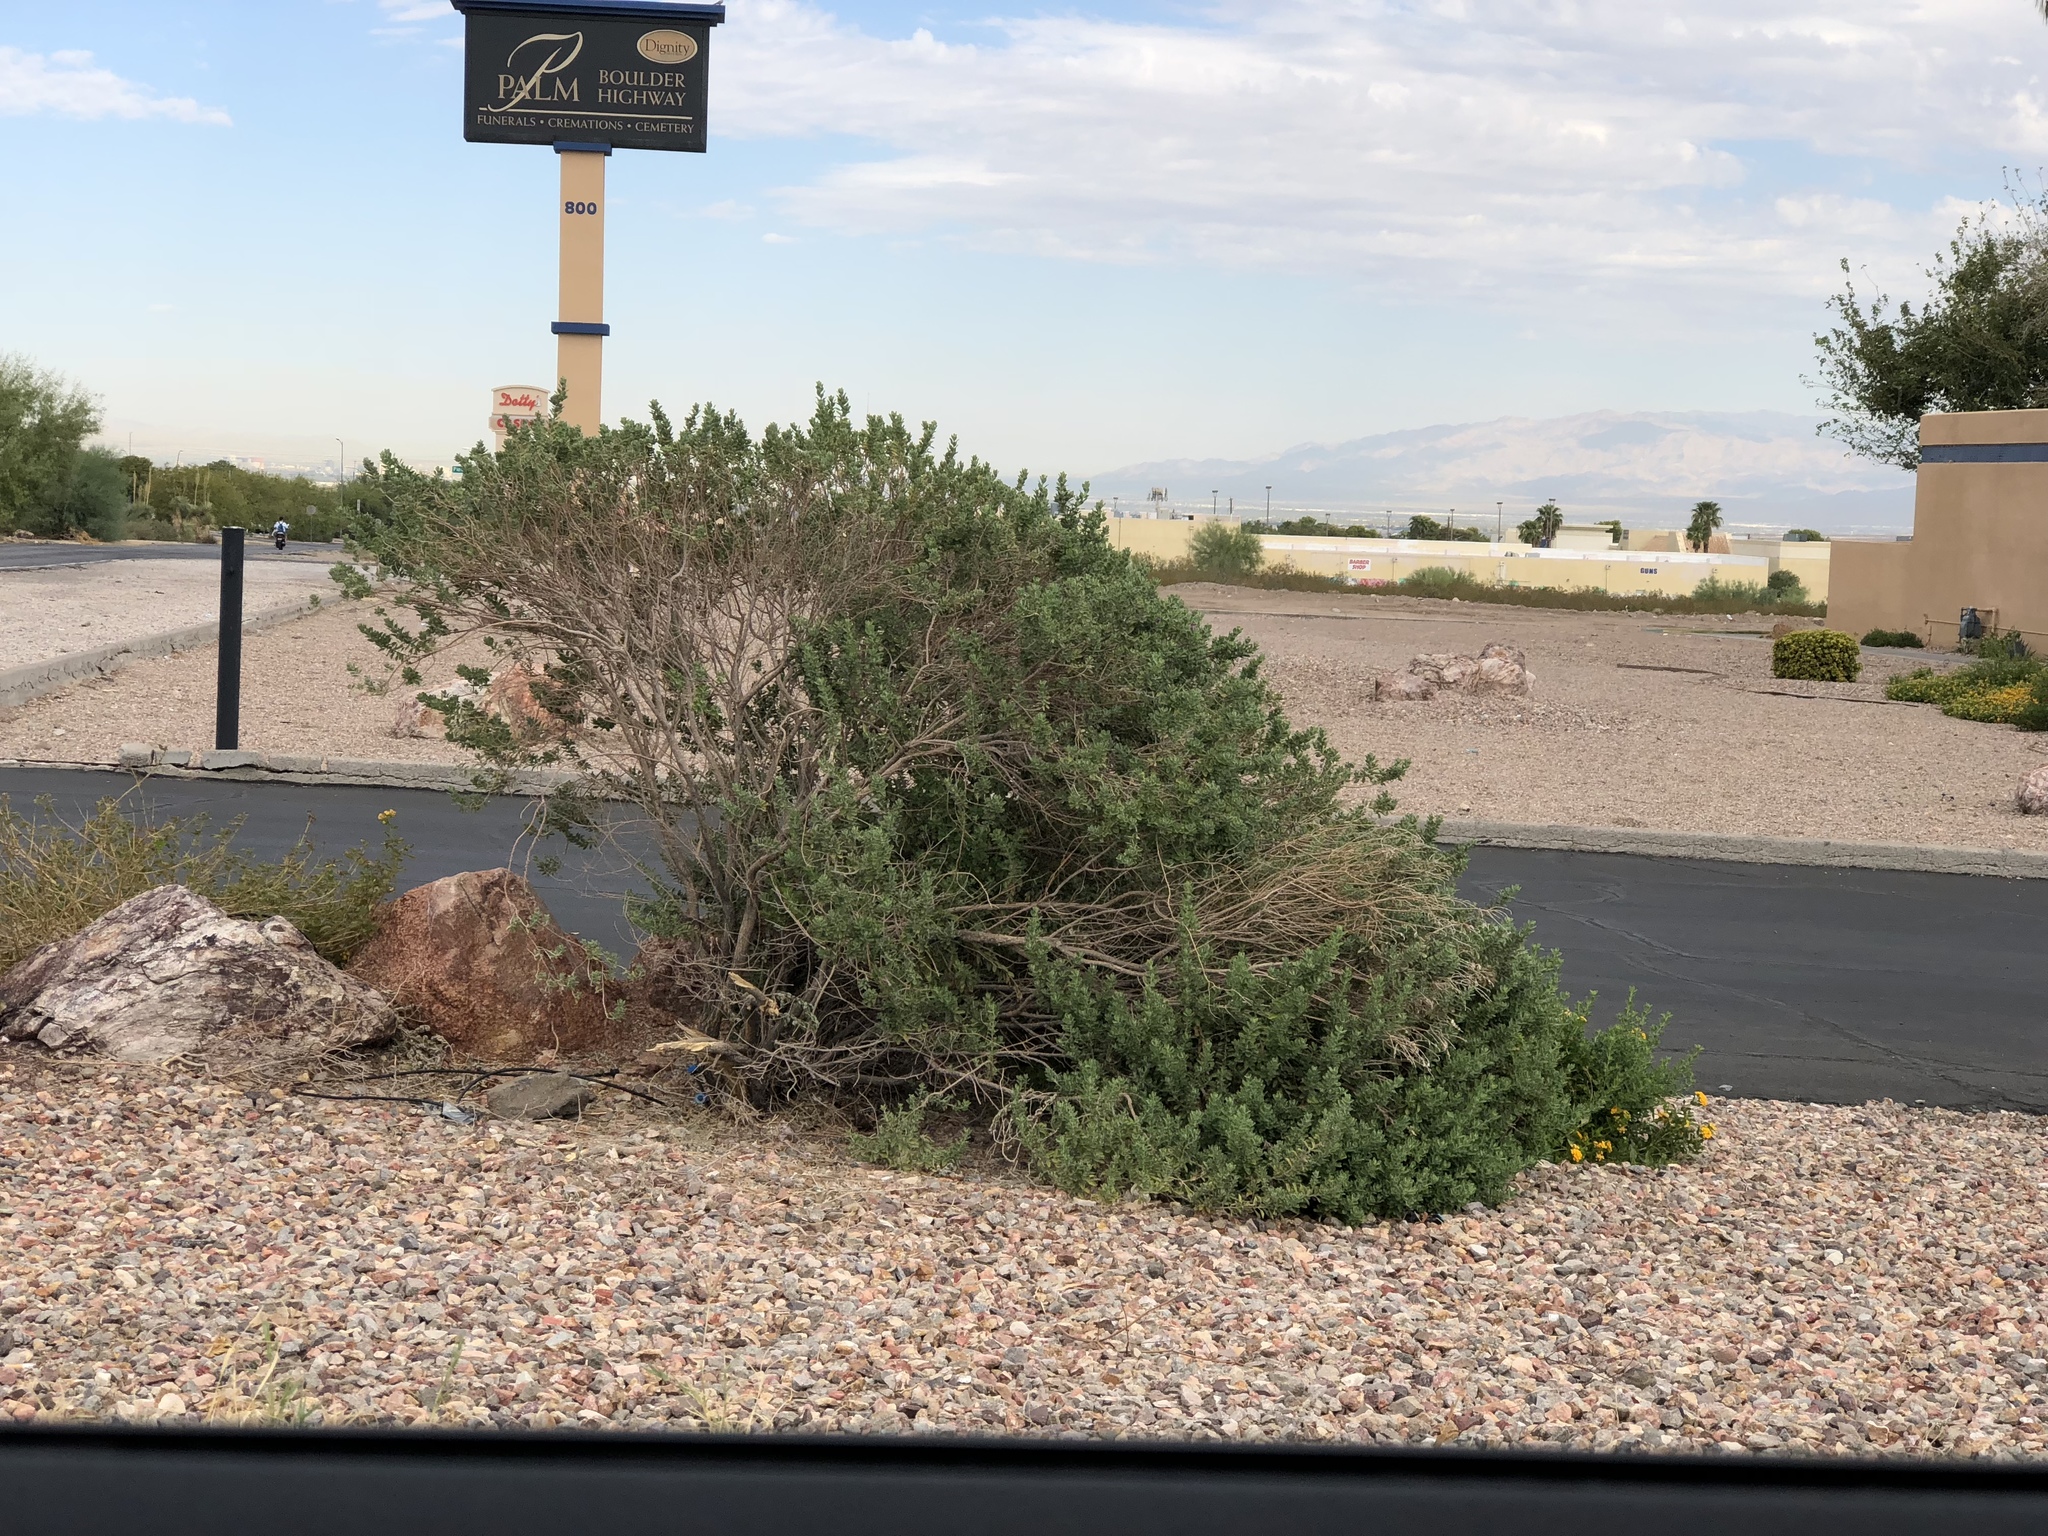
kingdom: Plantae
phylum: Tracheophyta
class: Magnoliopsida
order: Zygophyllales
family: Zygophyllaceae
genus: Larrea
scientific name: Larrea tridentata
